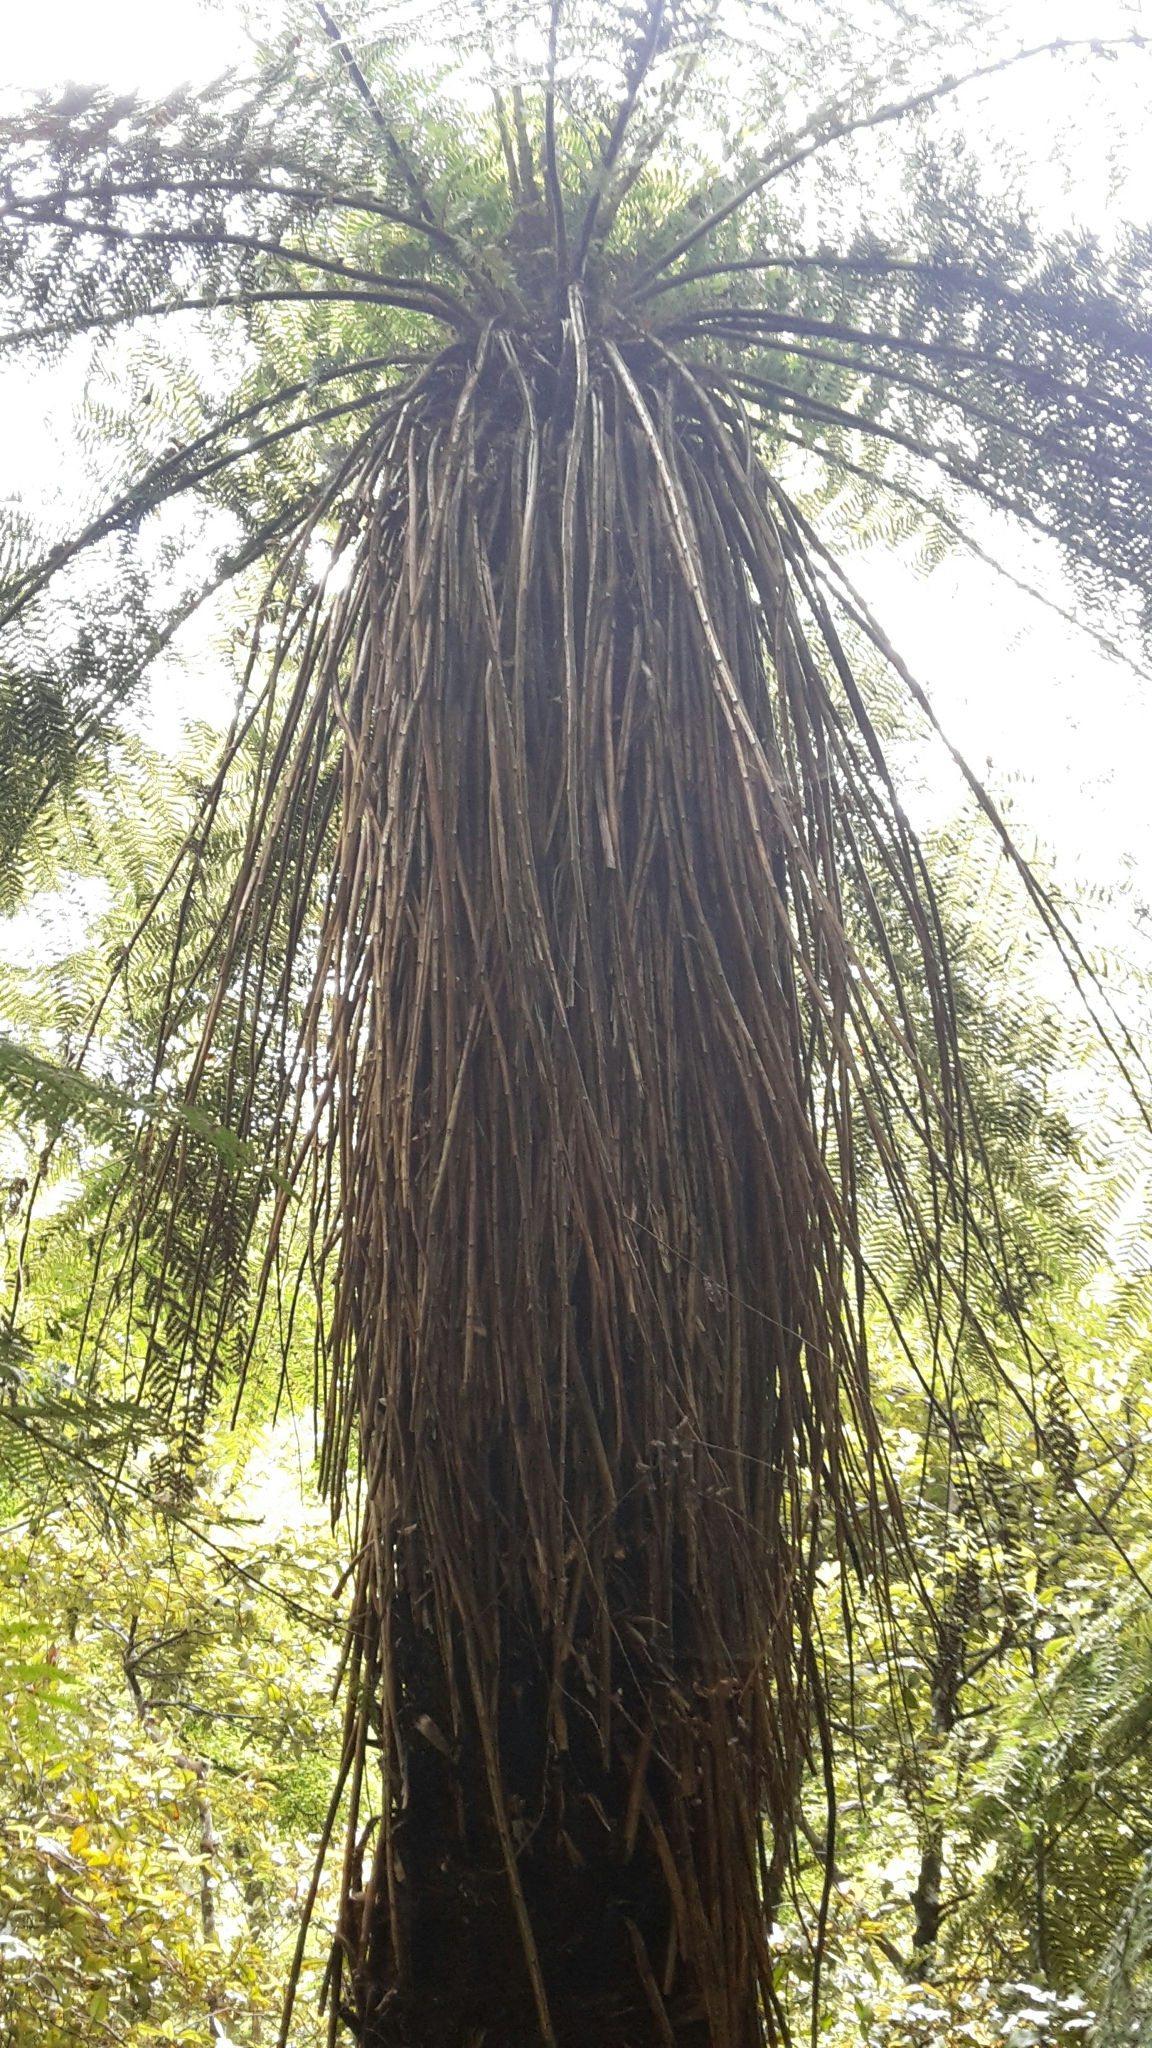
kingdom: Plantae
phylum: Tracheophyta
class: Polypodiopsida
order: Cyatheales
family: Cyatheaceae
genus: Alsophila
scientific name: Alsophila smithii
